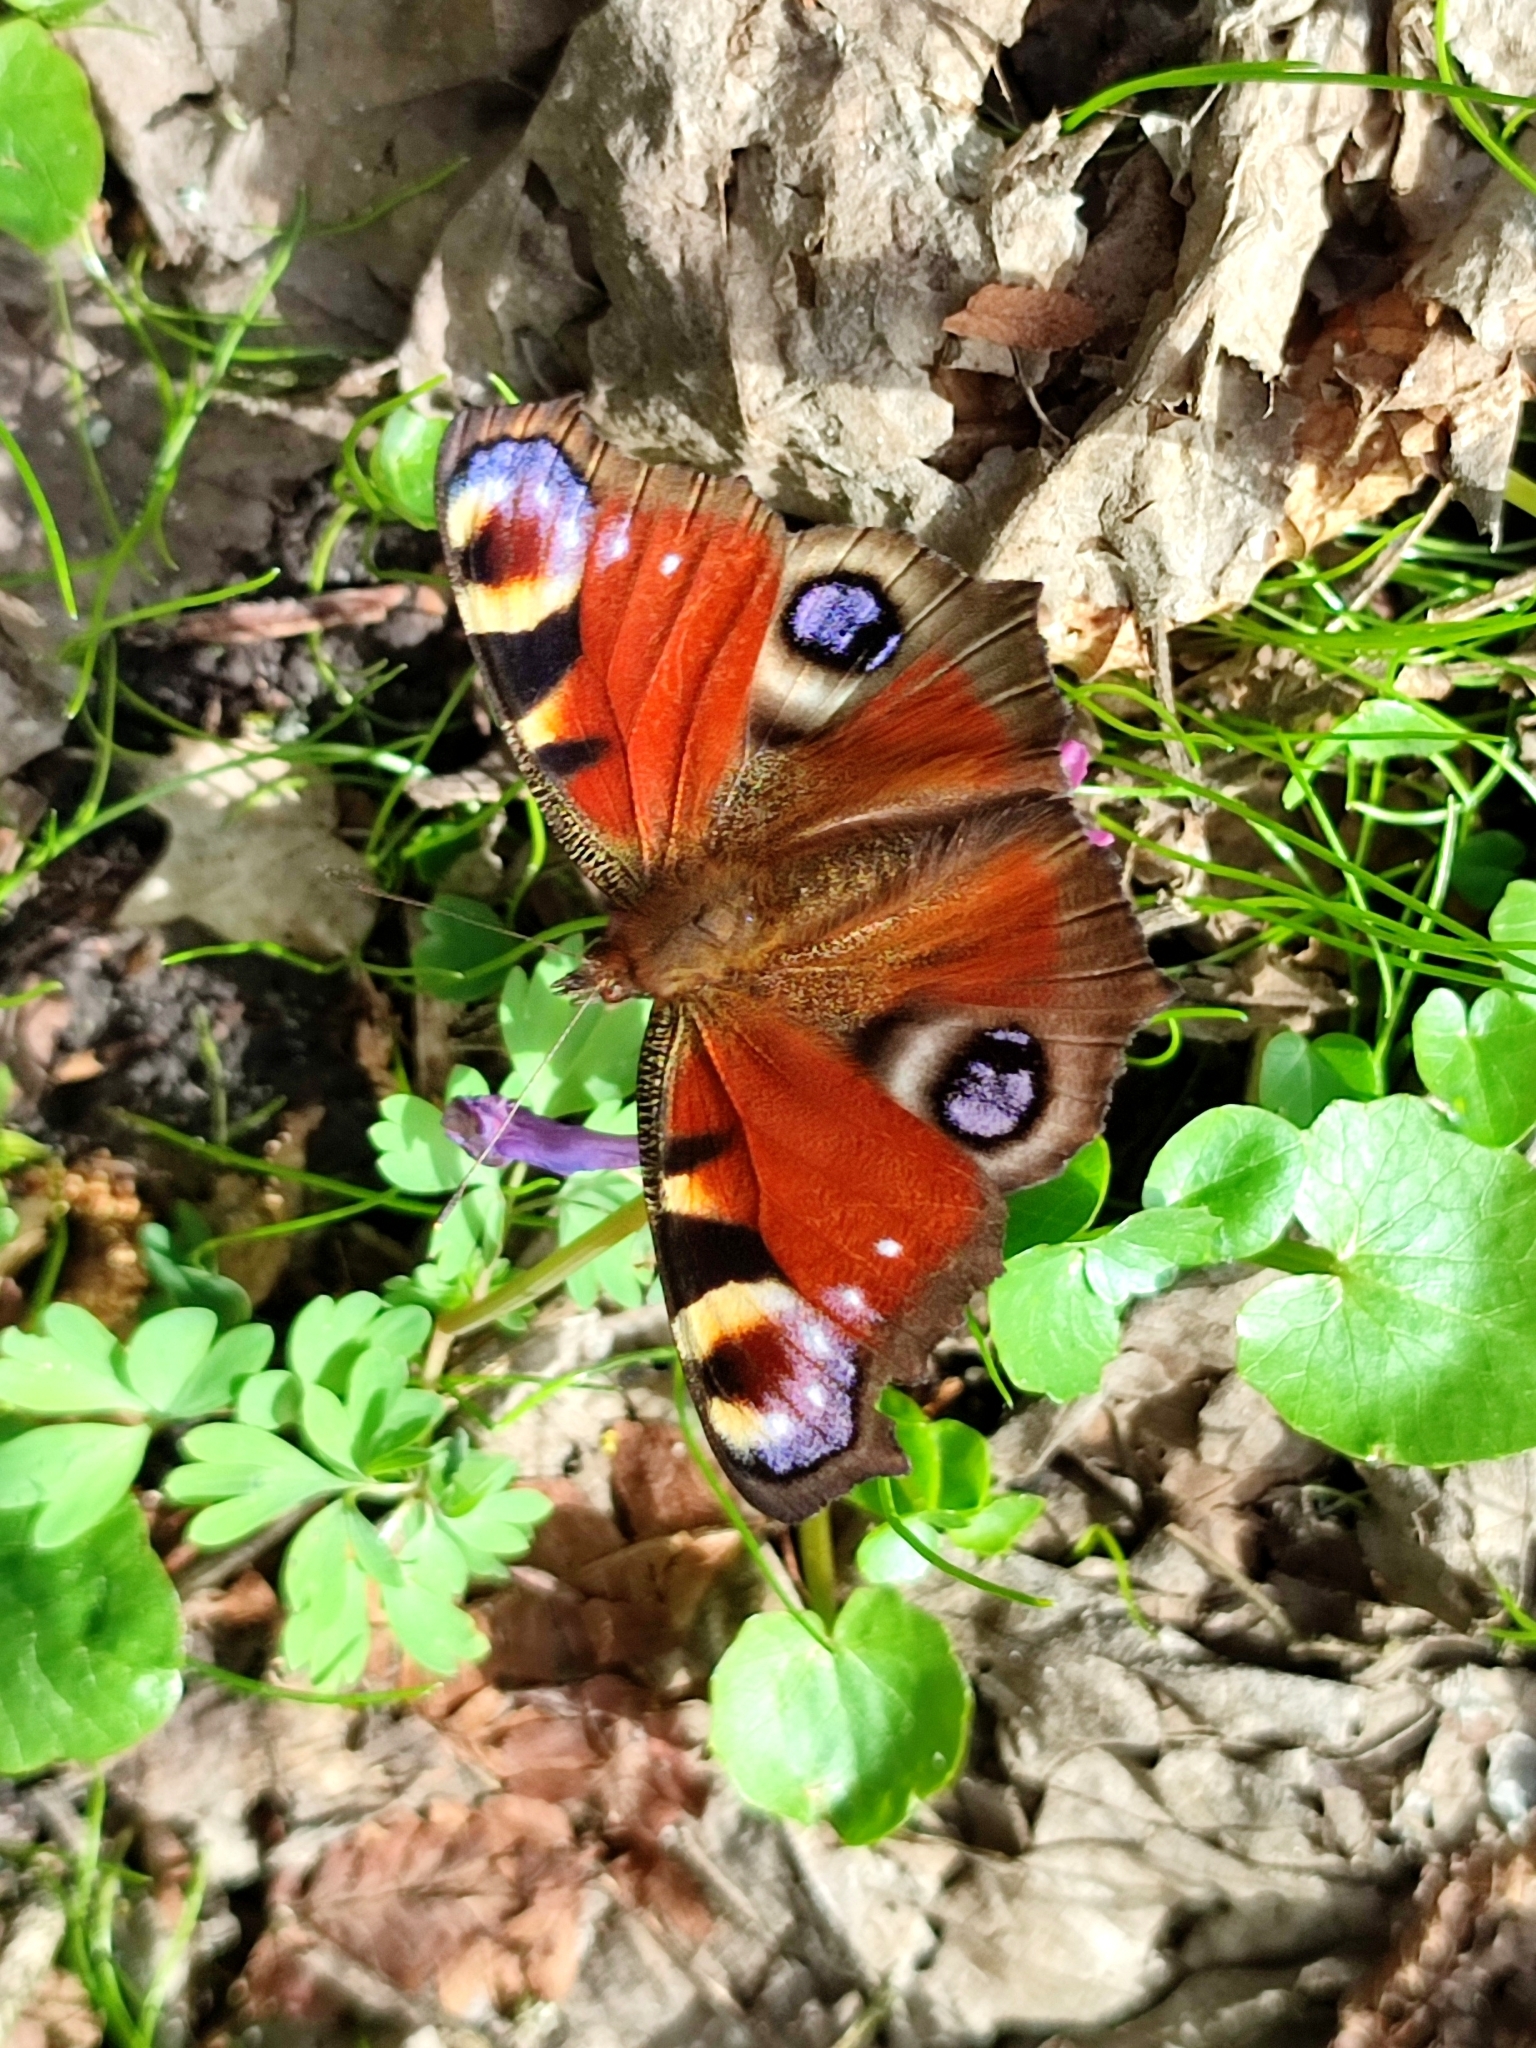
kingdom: Animalia
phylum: Arthropoda
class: Insecta
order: Lepidoptera
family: Nymphalidae
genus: Aglais
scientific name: Aglais io
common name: Peacock
